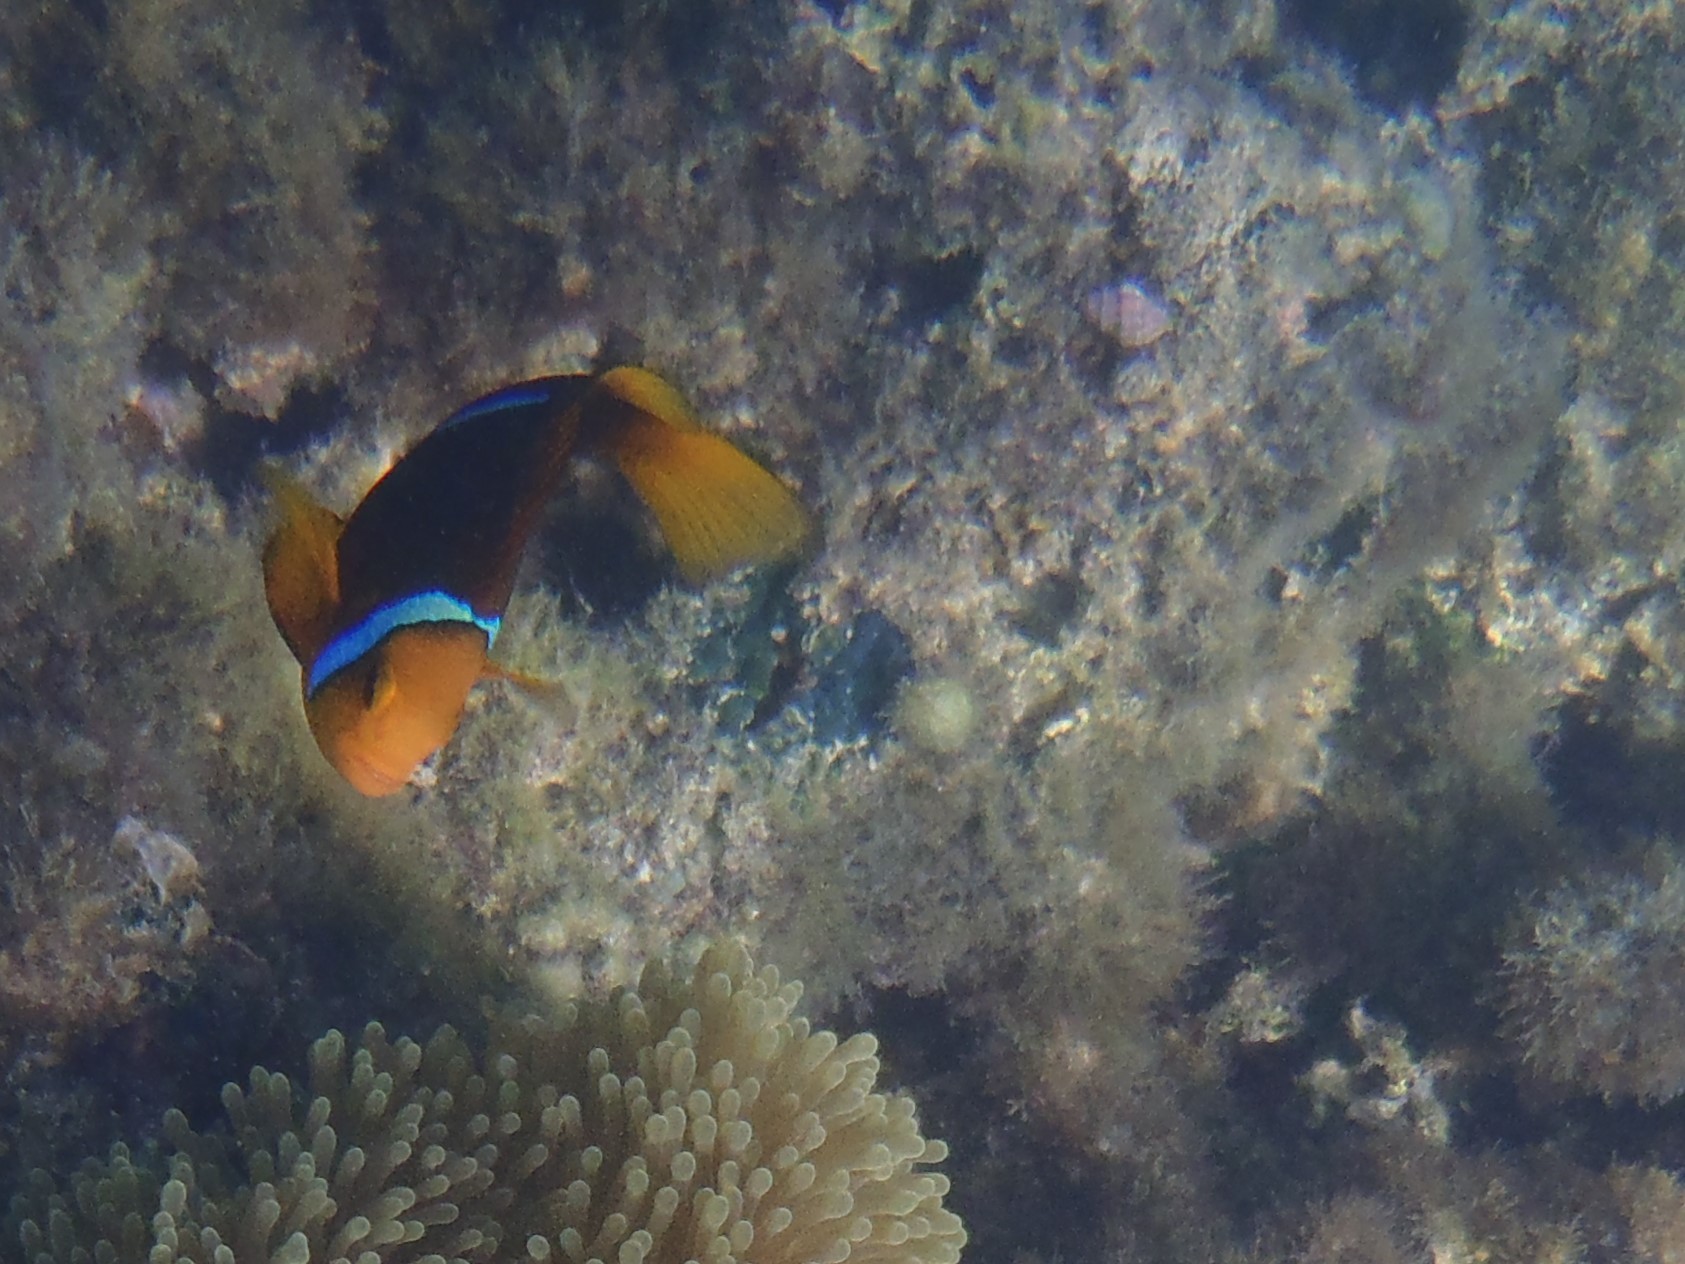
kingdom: Animalia
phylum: Chordata
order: Perciformes
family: Pomacentridae
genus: Amphiprion
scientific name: Amphiprion chrysopterus
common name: Orange-fin anemonefish
